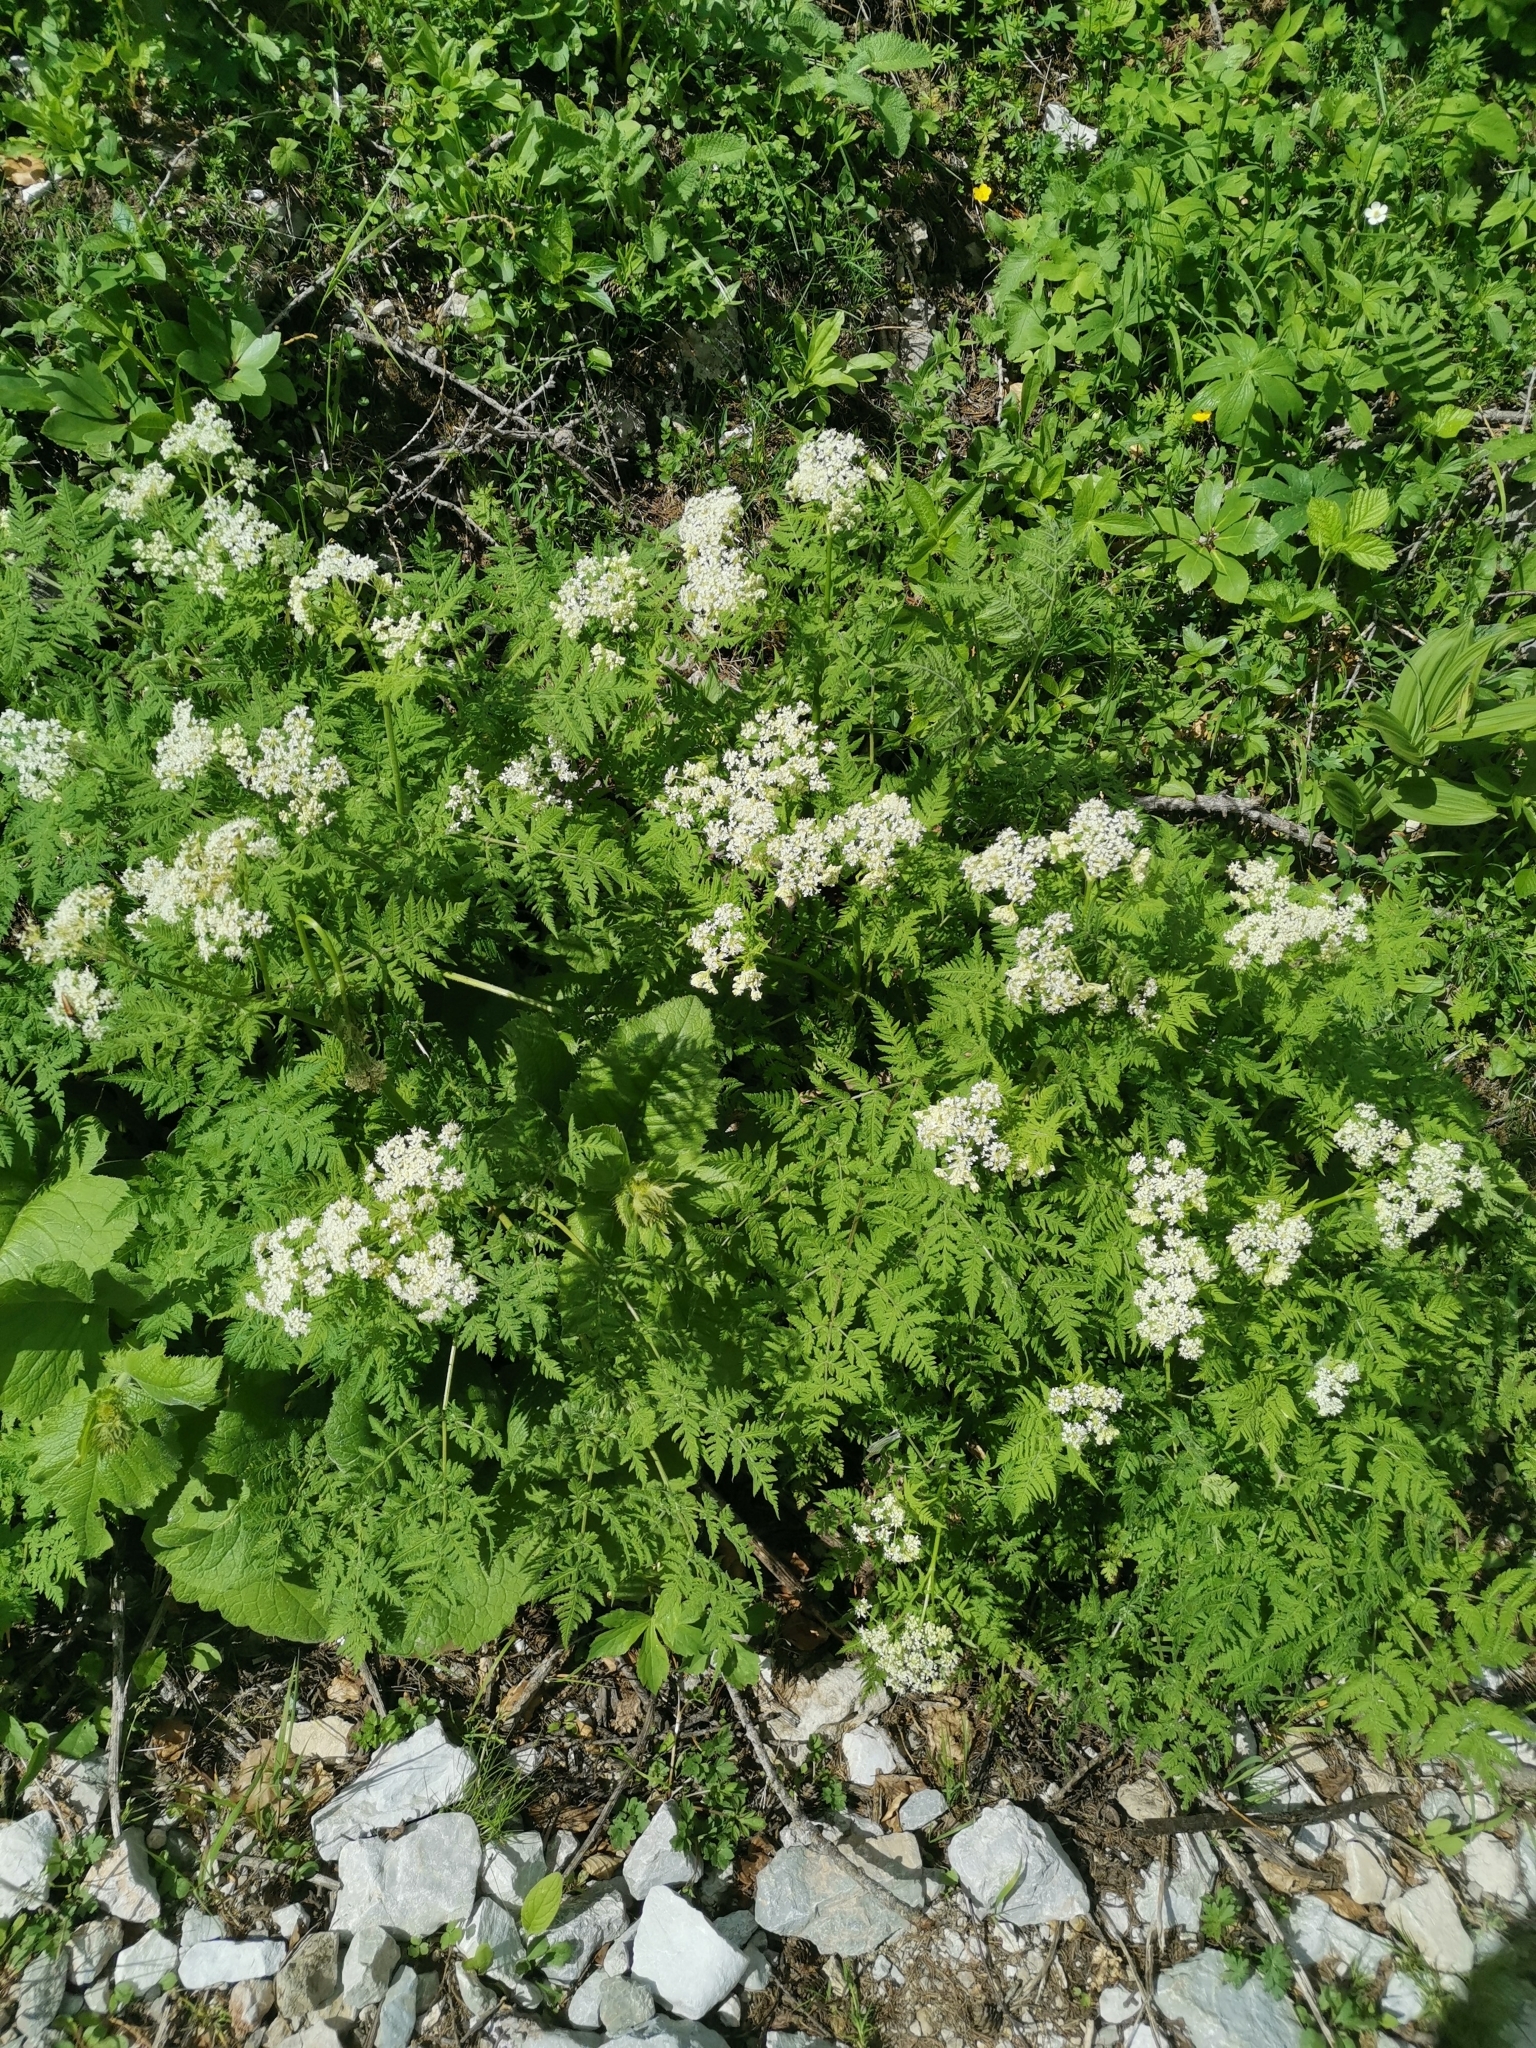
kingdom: Plantae
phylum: Tracheophyta
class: Magnoliopsida
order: Apiales
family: Apiaceae
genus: Myrrhis
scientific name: Myrrhis odorata
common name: Sweet cicely
